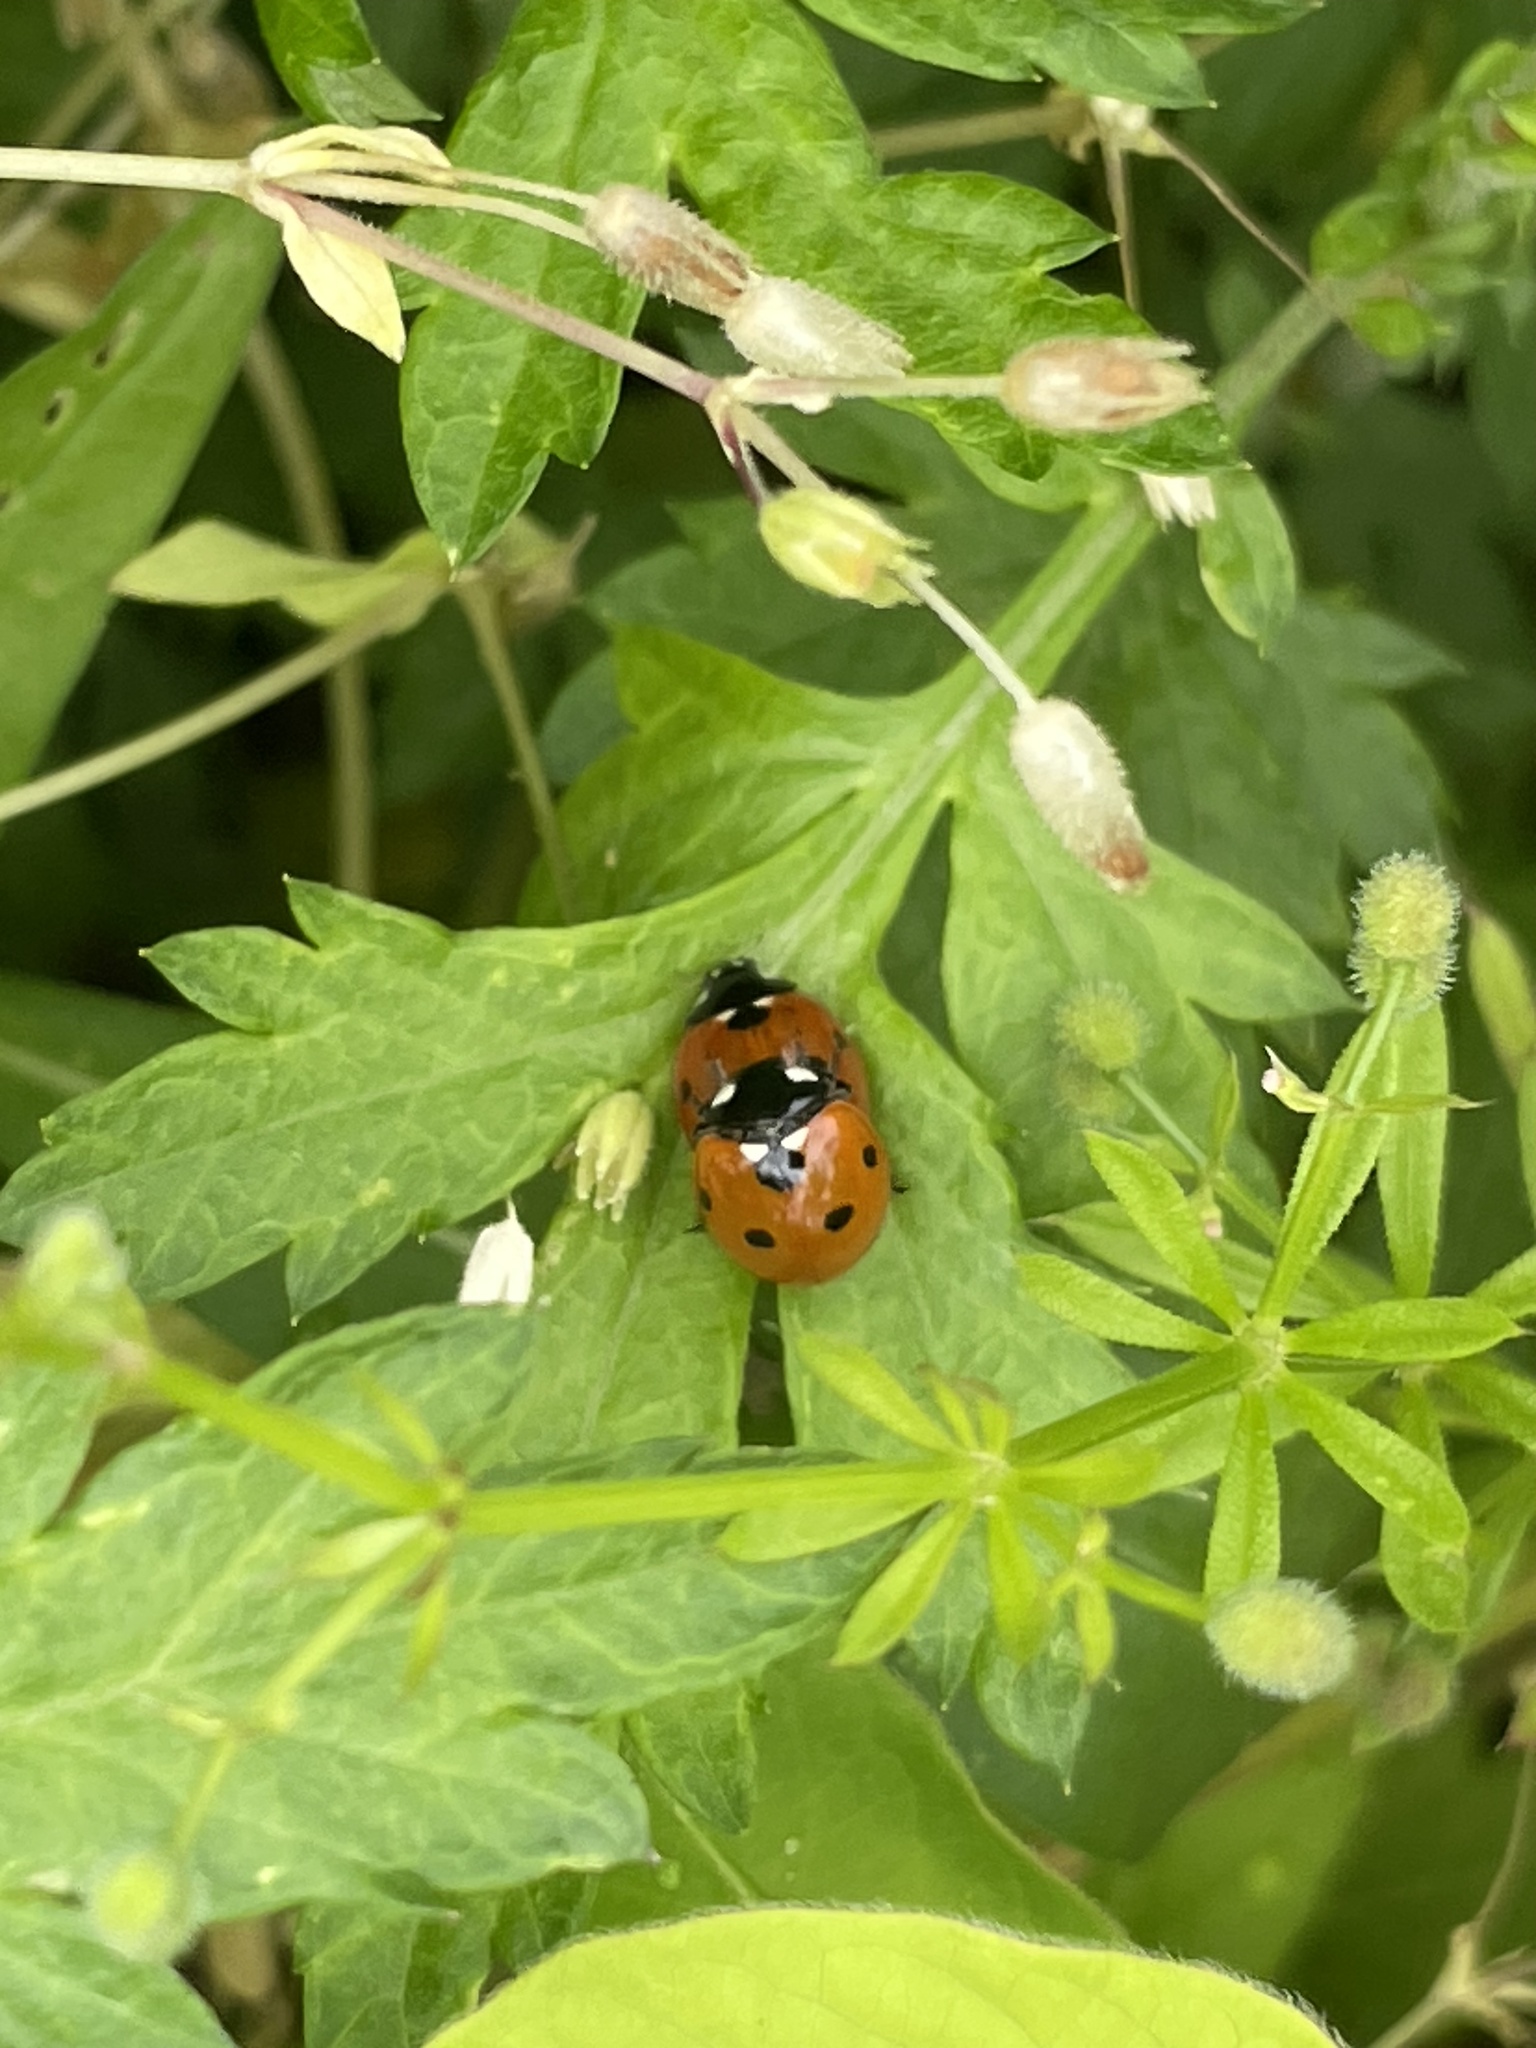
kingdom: Animalia
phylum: Arthropoda
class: Insecta
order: Coleoptera
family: Coccinellidae
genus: Coccinella
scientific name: Coccinella septempunctata
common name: Sevenspotted lady beetle
